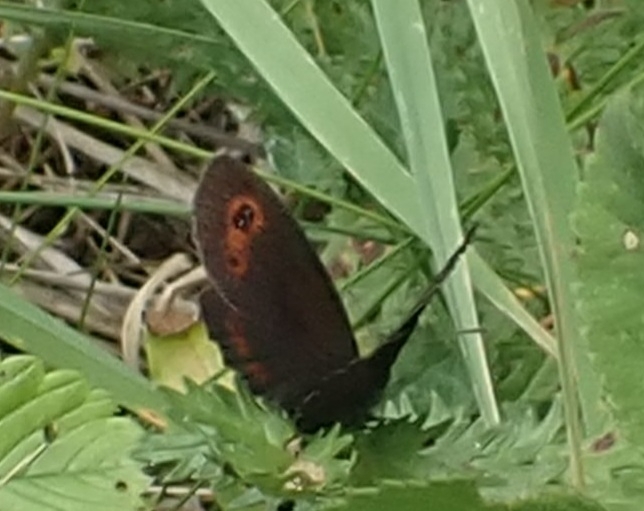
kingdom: Animalia
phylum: Arthropoda
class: Insecta
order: Lepidoptera
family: Nymphalidae
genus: Erebia
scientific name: Erebia aethiops
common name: Scotch argus
